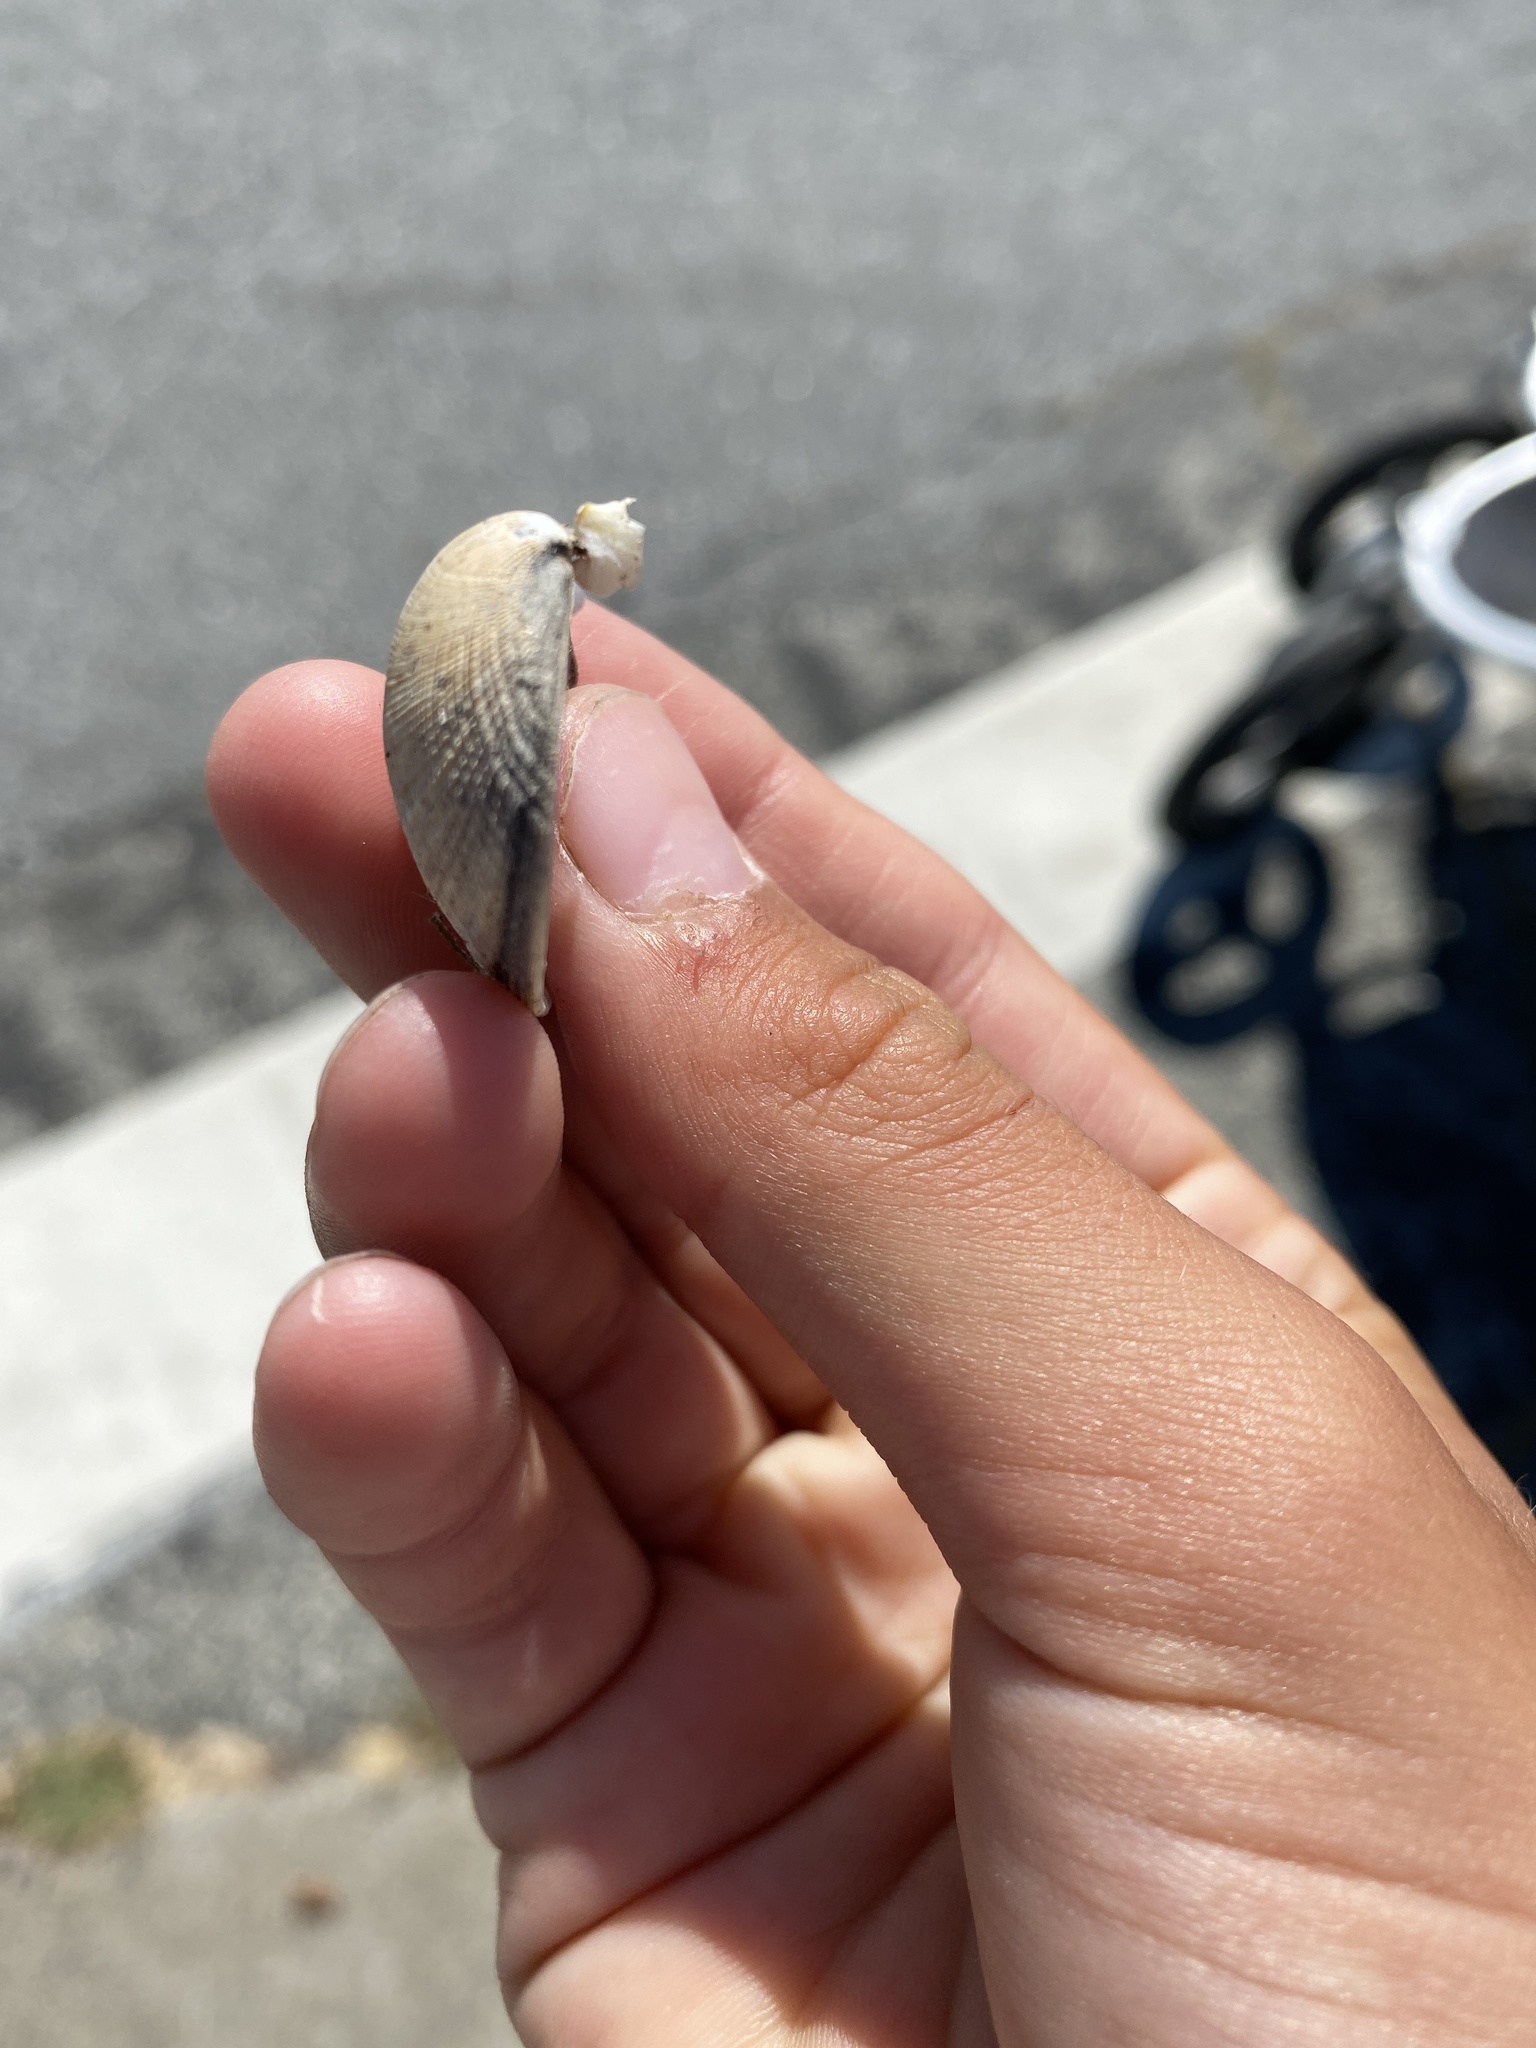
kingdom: Animalia
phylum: Mollusca
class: Bivalvia
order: Venerida
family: Veneridae
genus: Ruditapes
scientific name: Ruditapes philippinarum
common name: Manila clam
